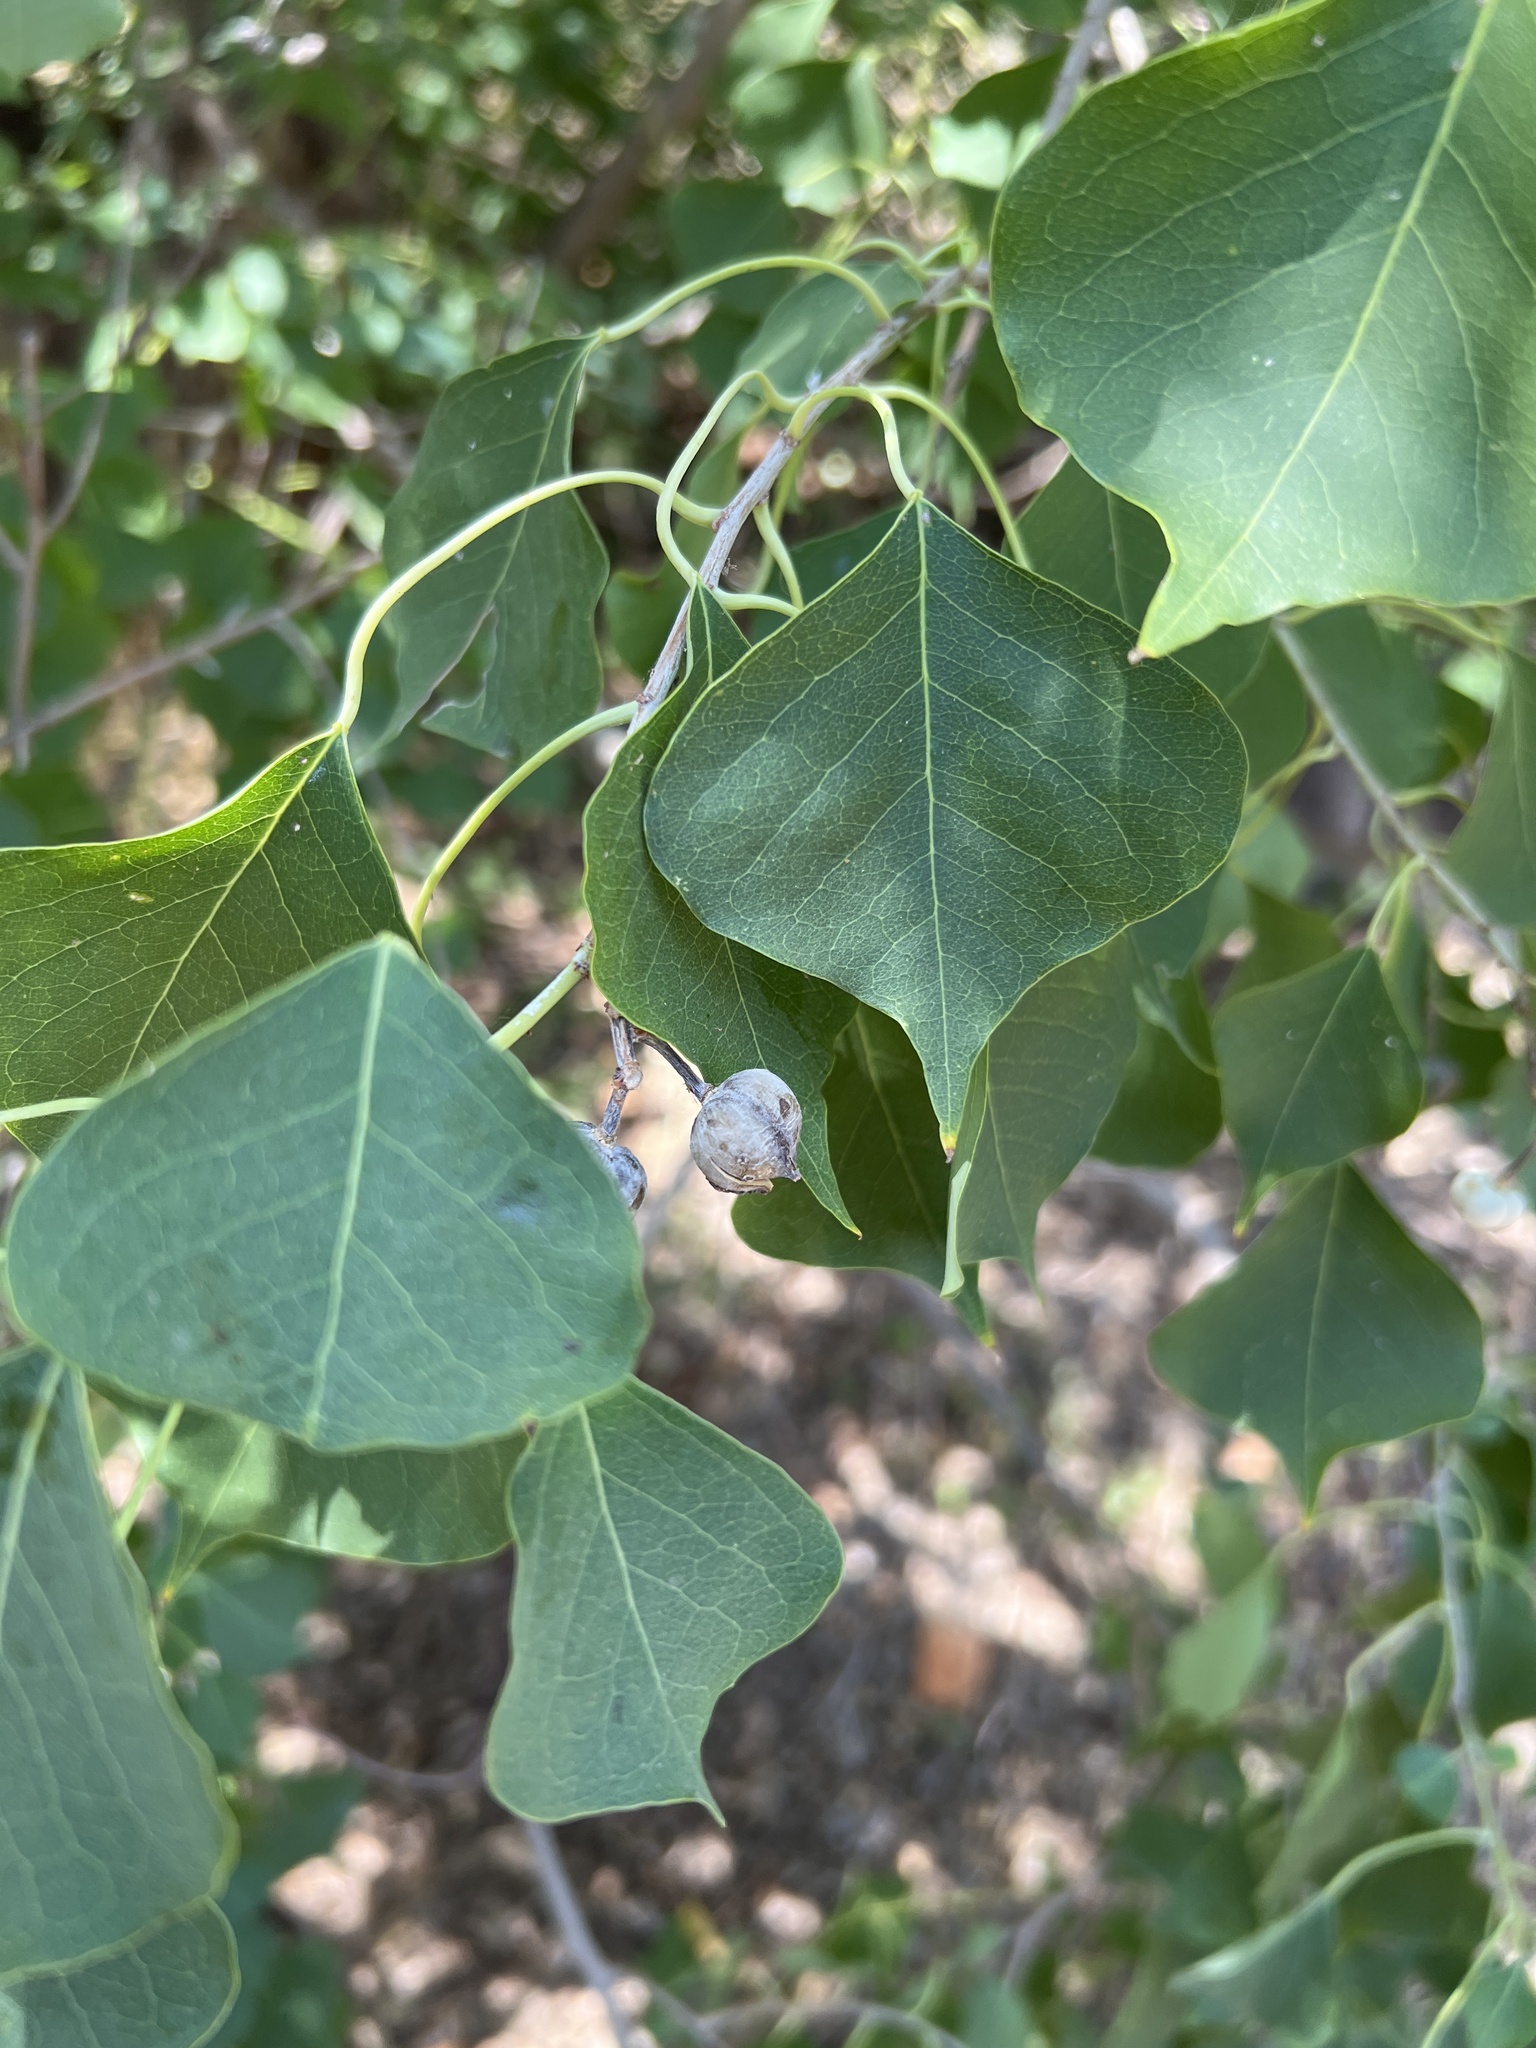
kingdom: Plantae
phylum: Tracheophyta
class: Magnoliopsida
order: Malpighiales
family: Euphorbiaceae
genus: Triadica
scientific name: Triadica sebifera
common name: Chinese tallow
